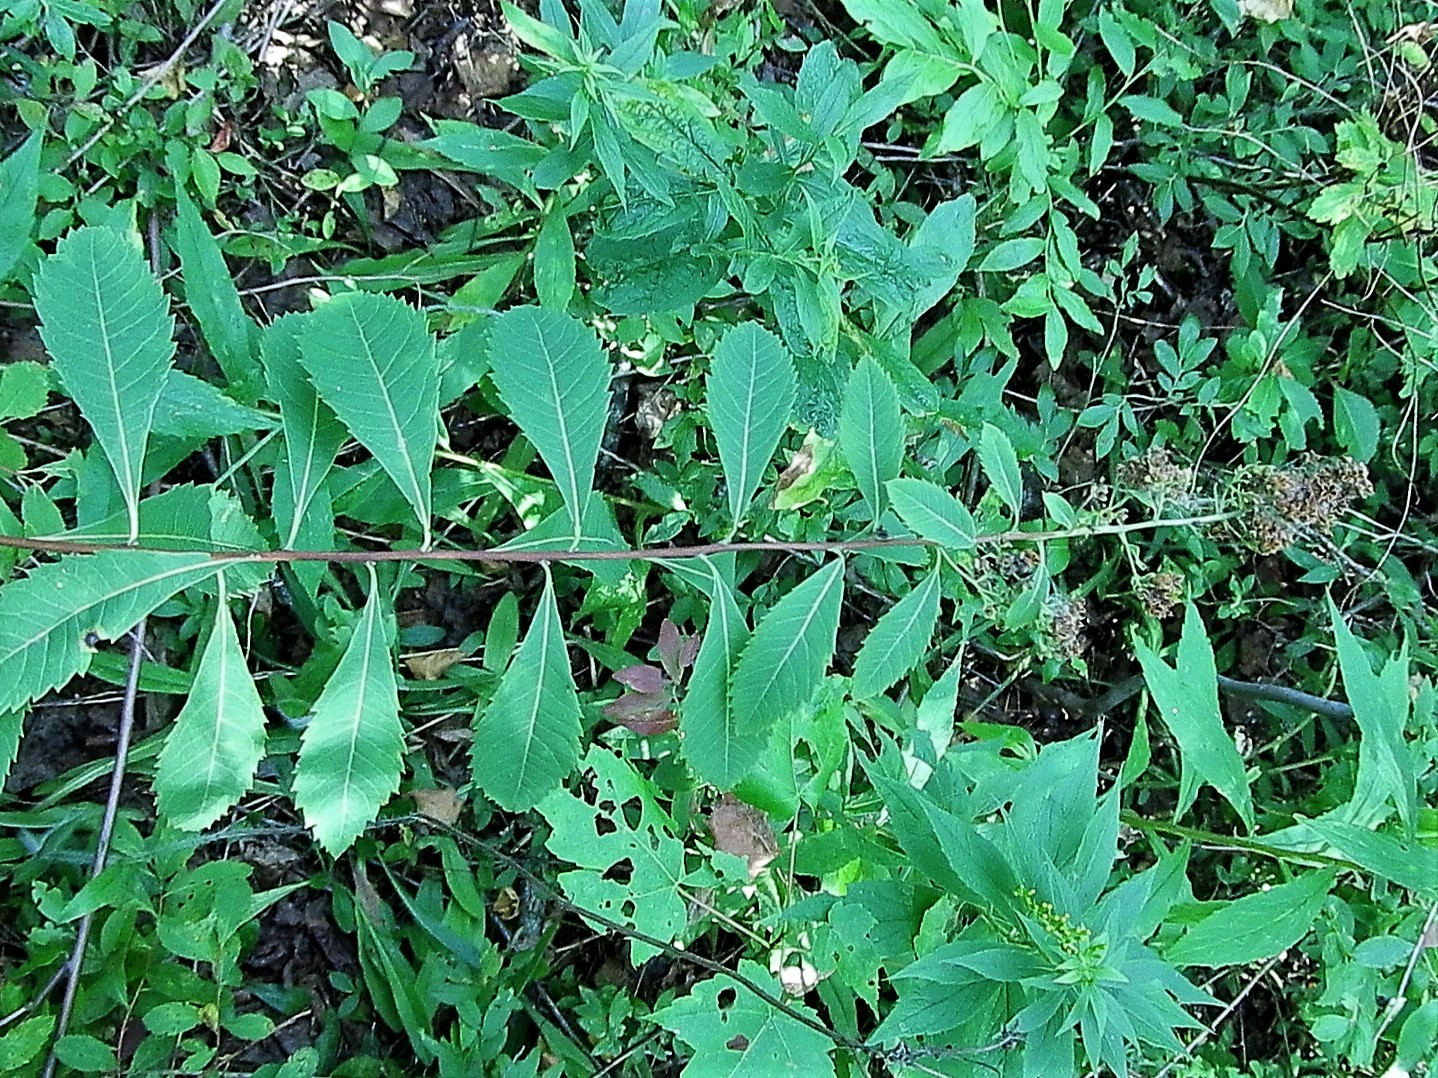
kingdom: Plantae
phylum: Tracheophyta
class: Magnoliopsida
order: Rosales
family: Rosaceae
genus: Spiraea
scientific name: Spiraea alba
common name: Pale bridewort
